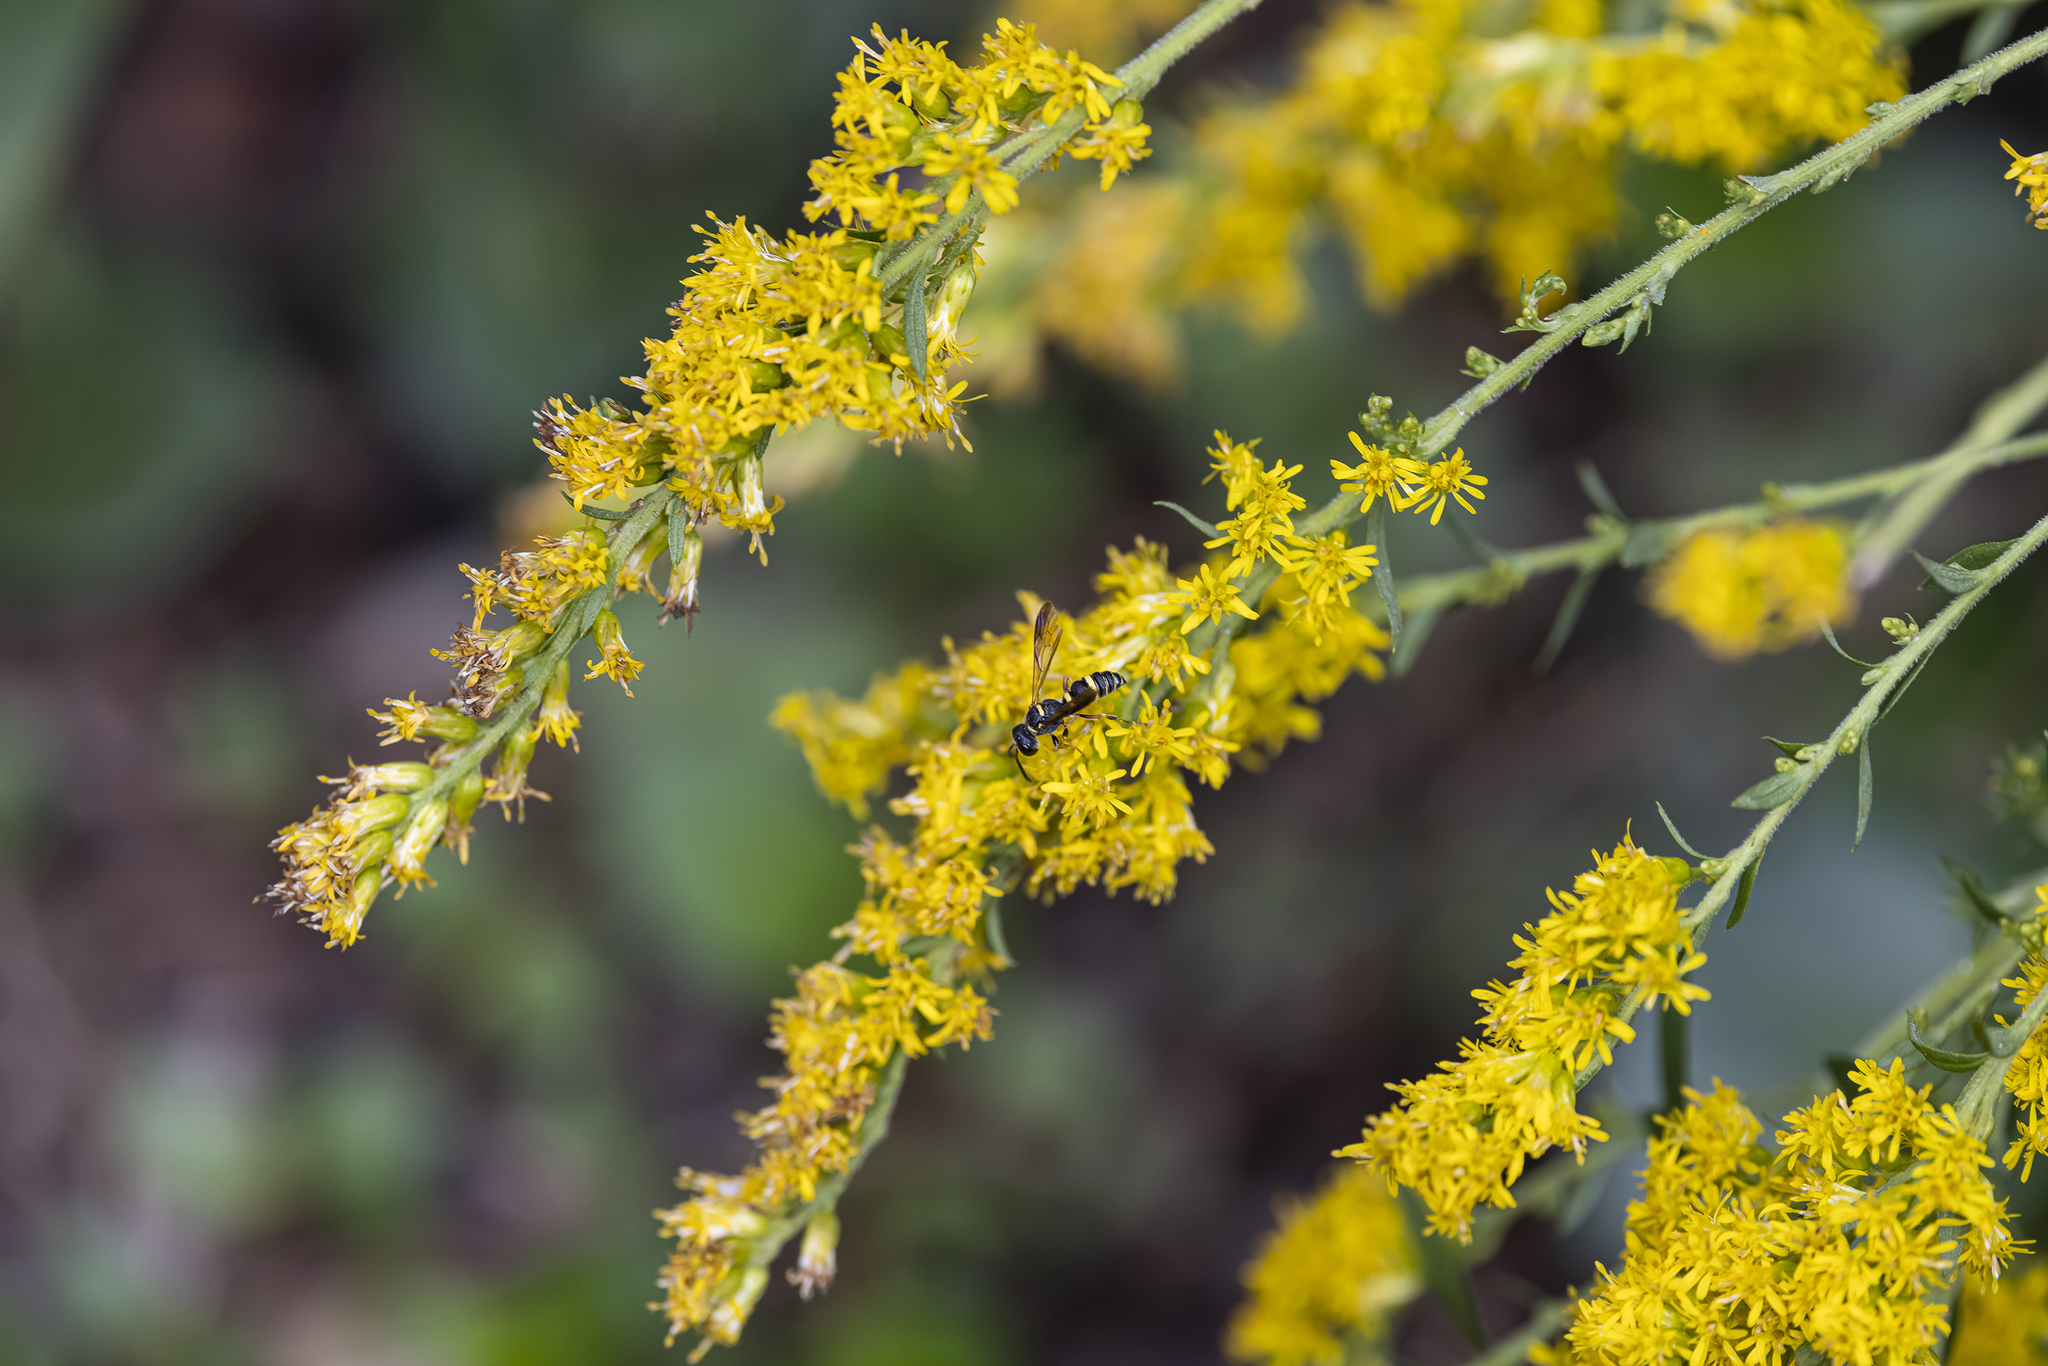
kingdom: Animalia
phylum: Arthropoda
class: Insecta
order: Hymenoptera
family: Crabronidae
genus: Cerceris
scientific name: Cerceris insolita
